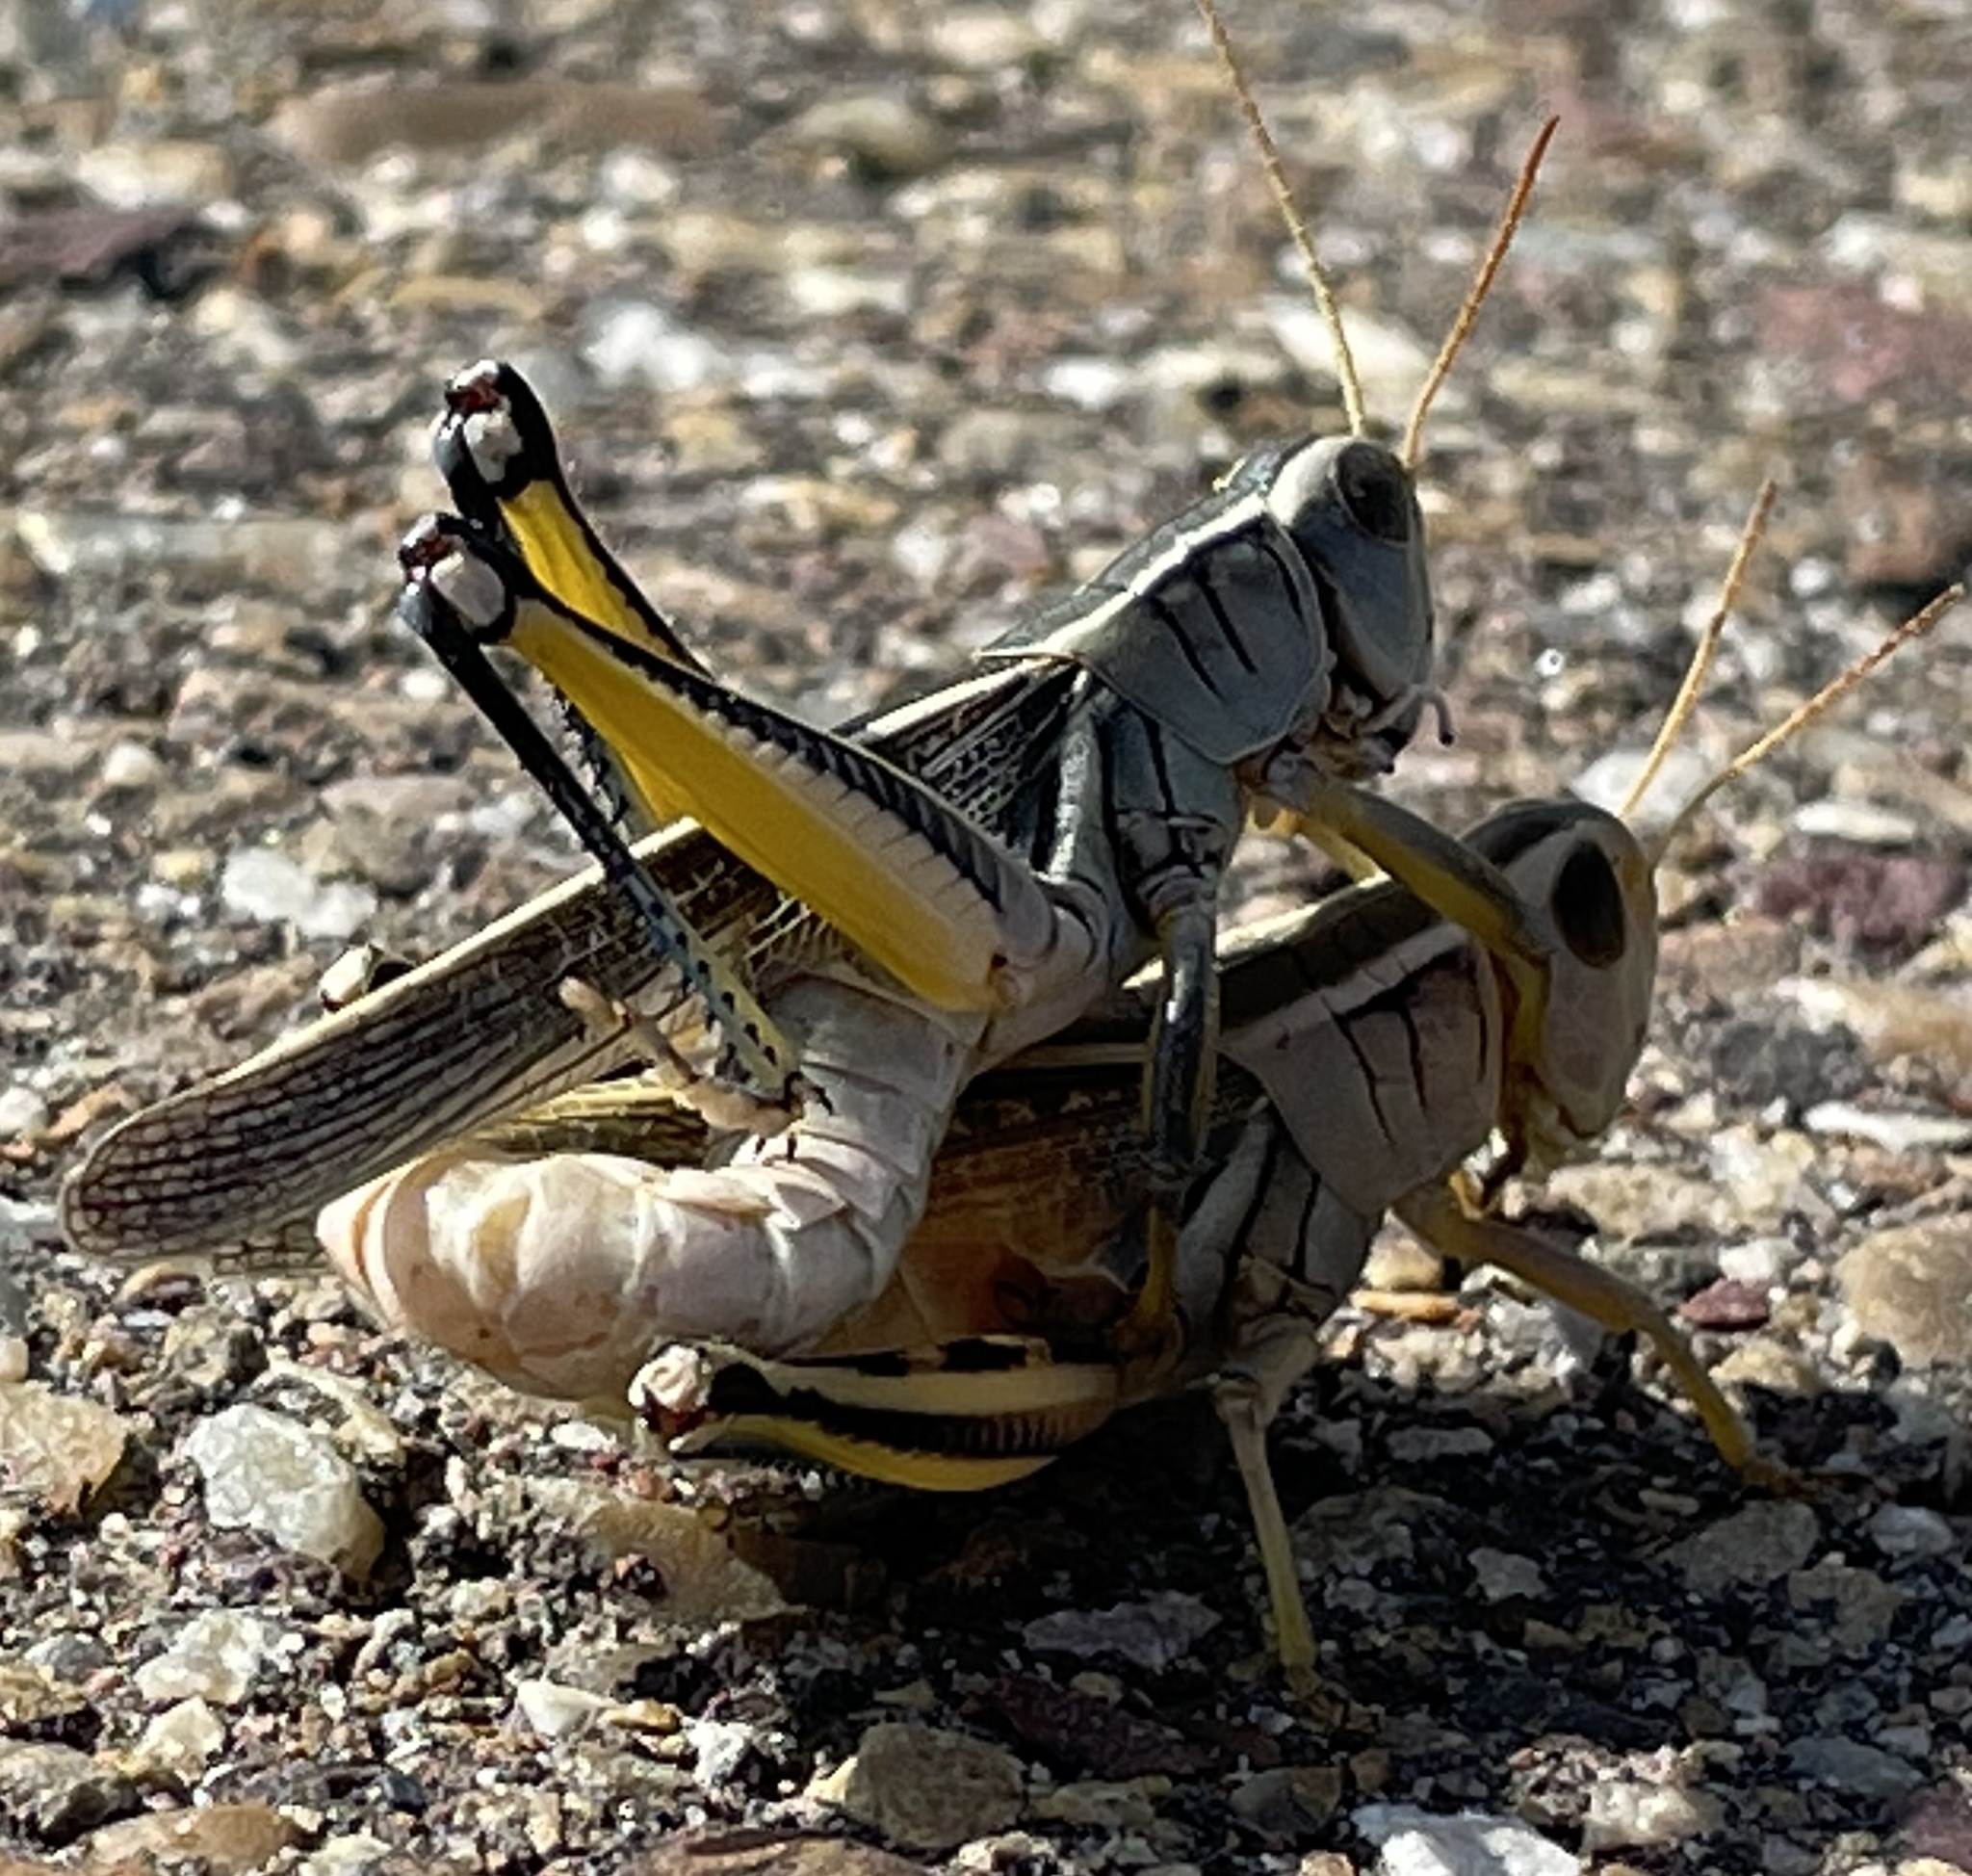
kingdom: Animalia
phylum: Arthropoda
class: Insecta
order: Orthoptera
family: Acrididae
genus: Melanoplus
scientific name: Melanoplus bivittatus
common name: Two-striped grasshopper
